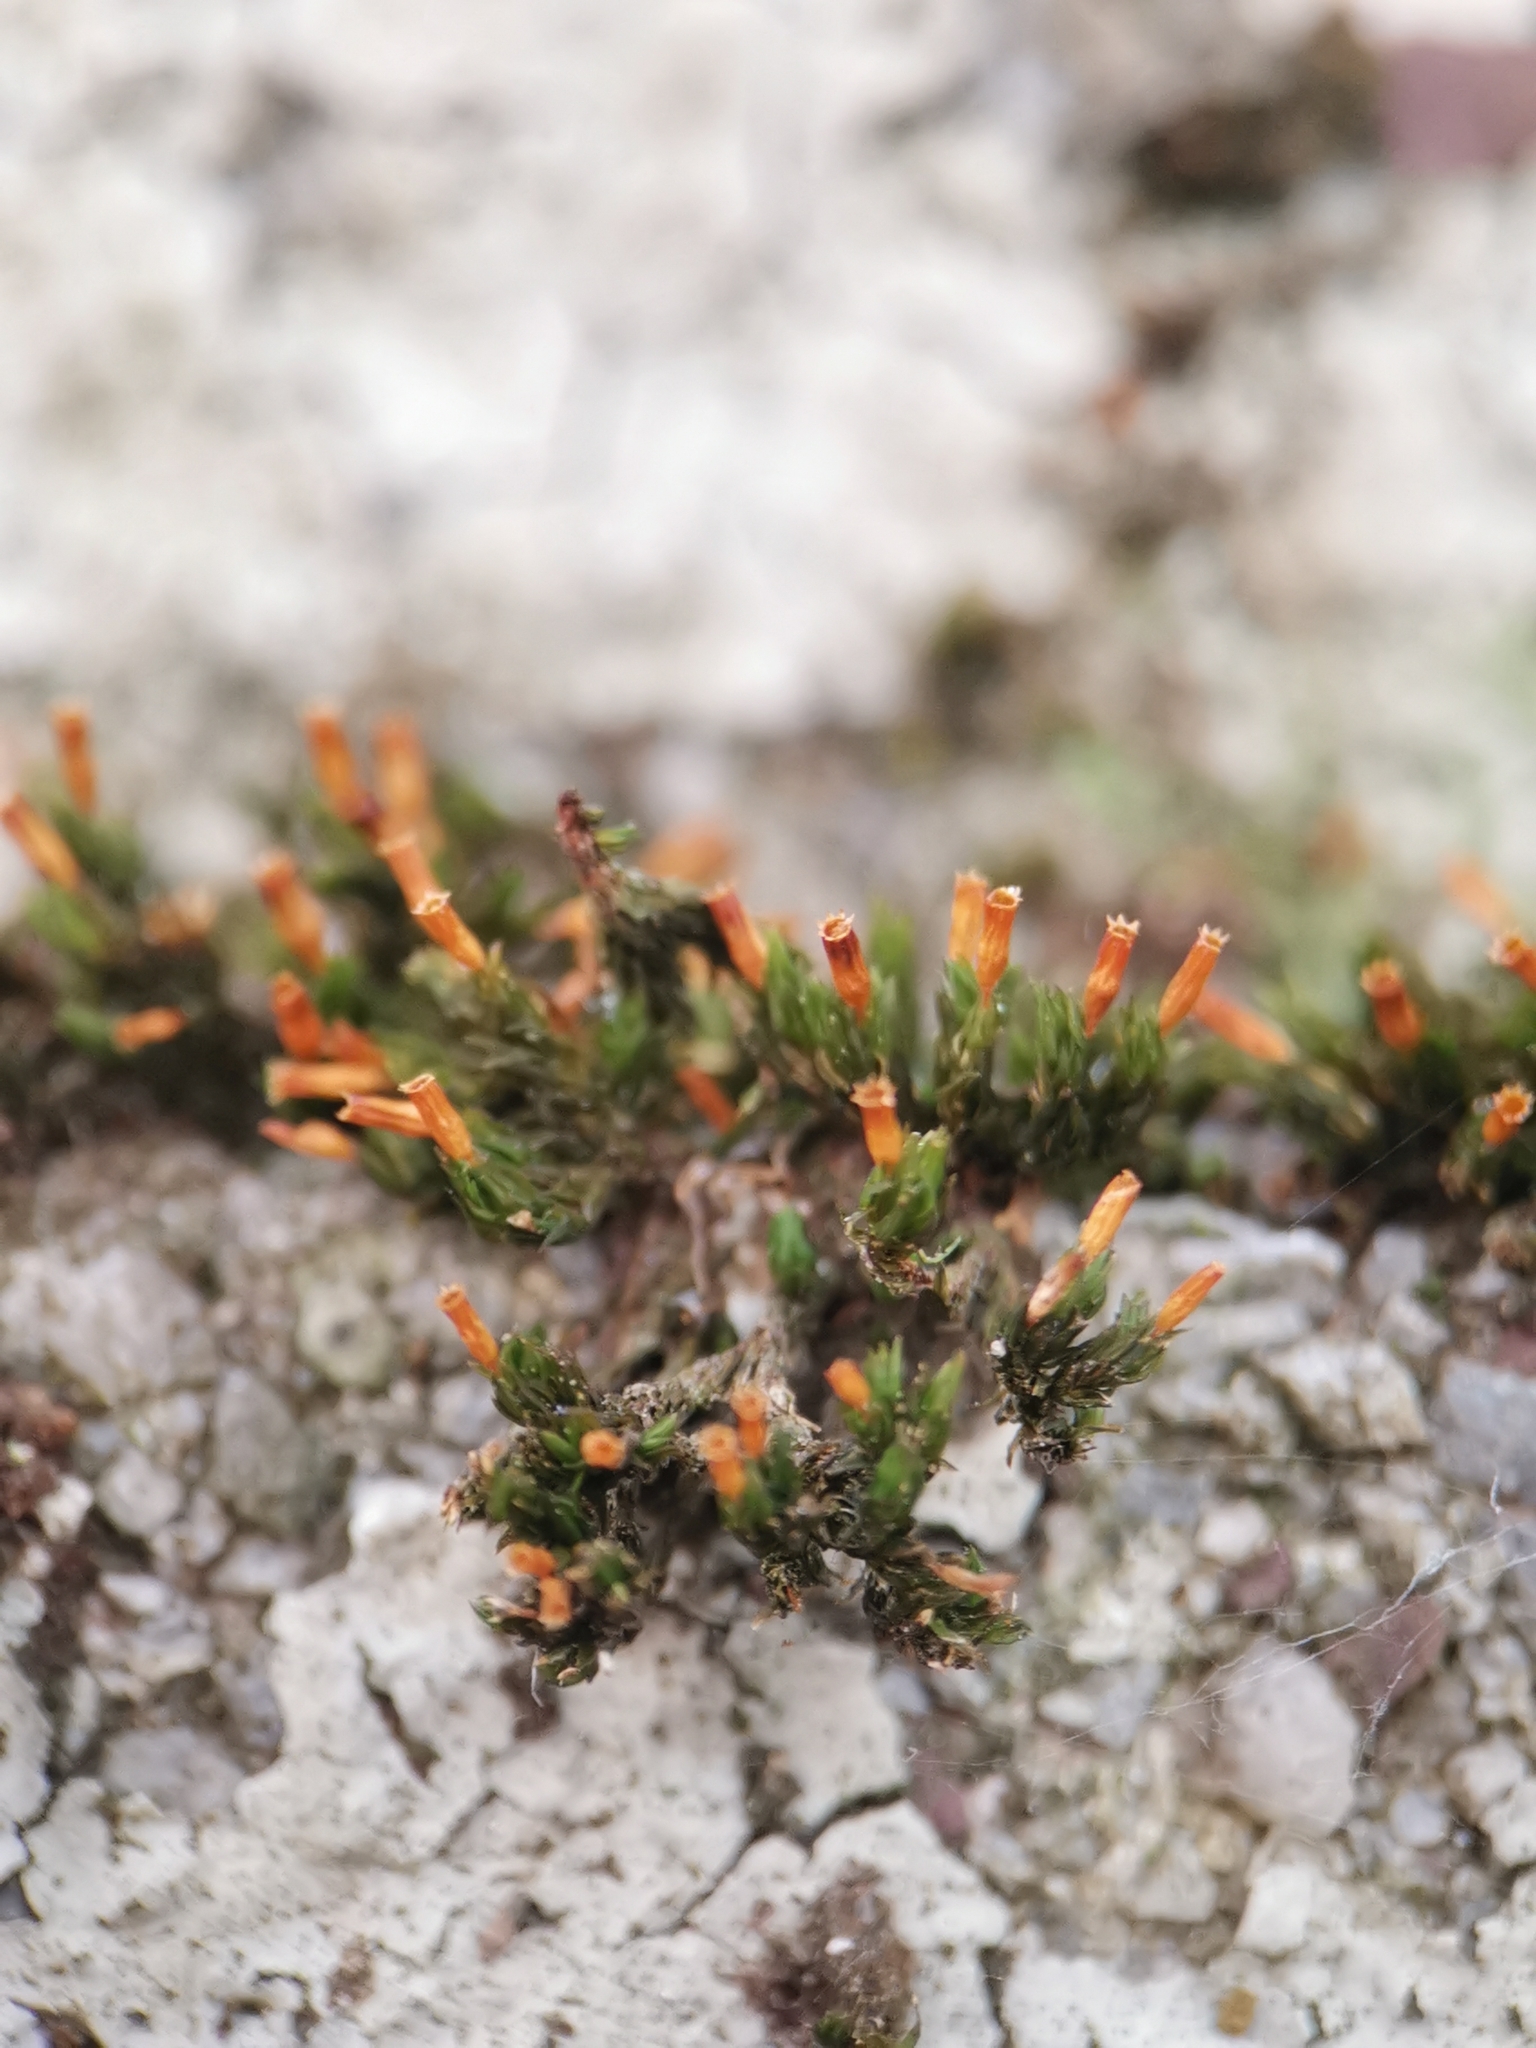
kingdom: Plantae
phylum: Bryophyta
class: Bryopsida
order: Orthotrichales
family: Orthotrichaceae
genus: Orthotrichum
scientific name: Orthotrichum anomalum
